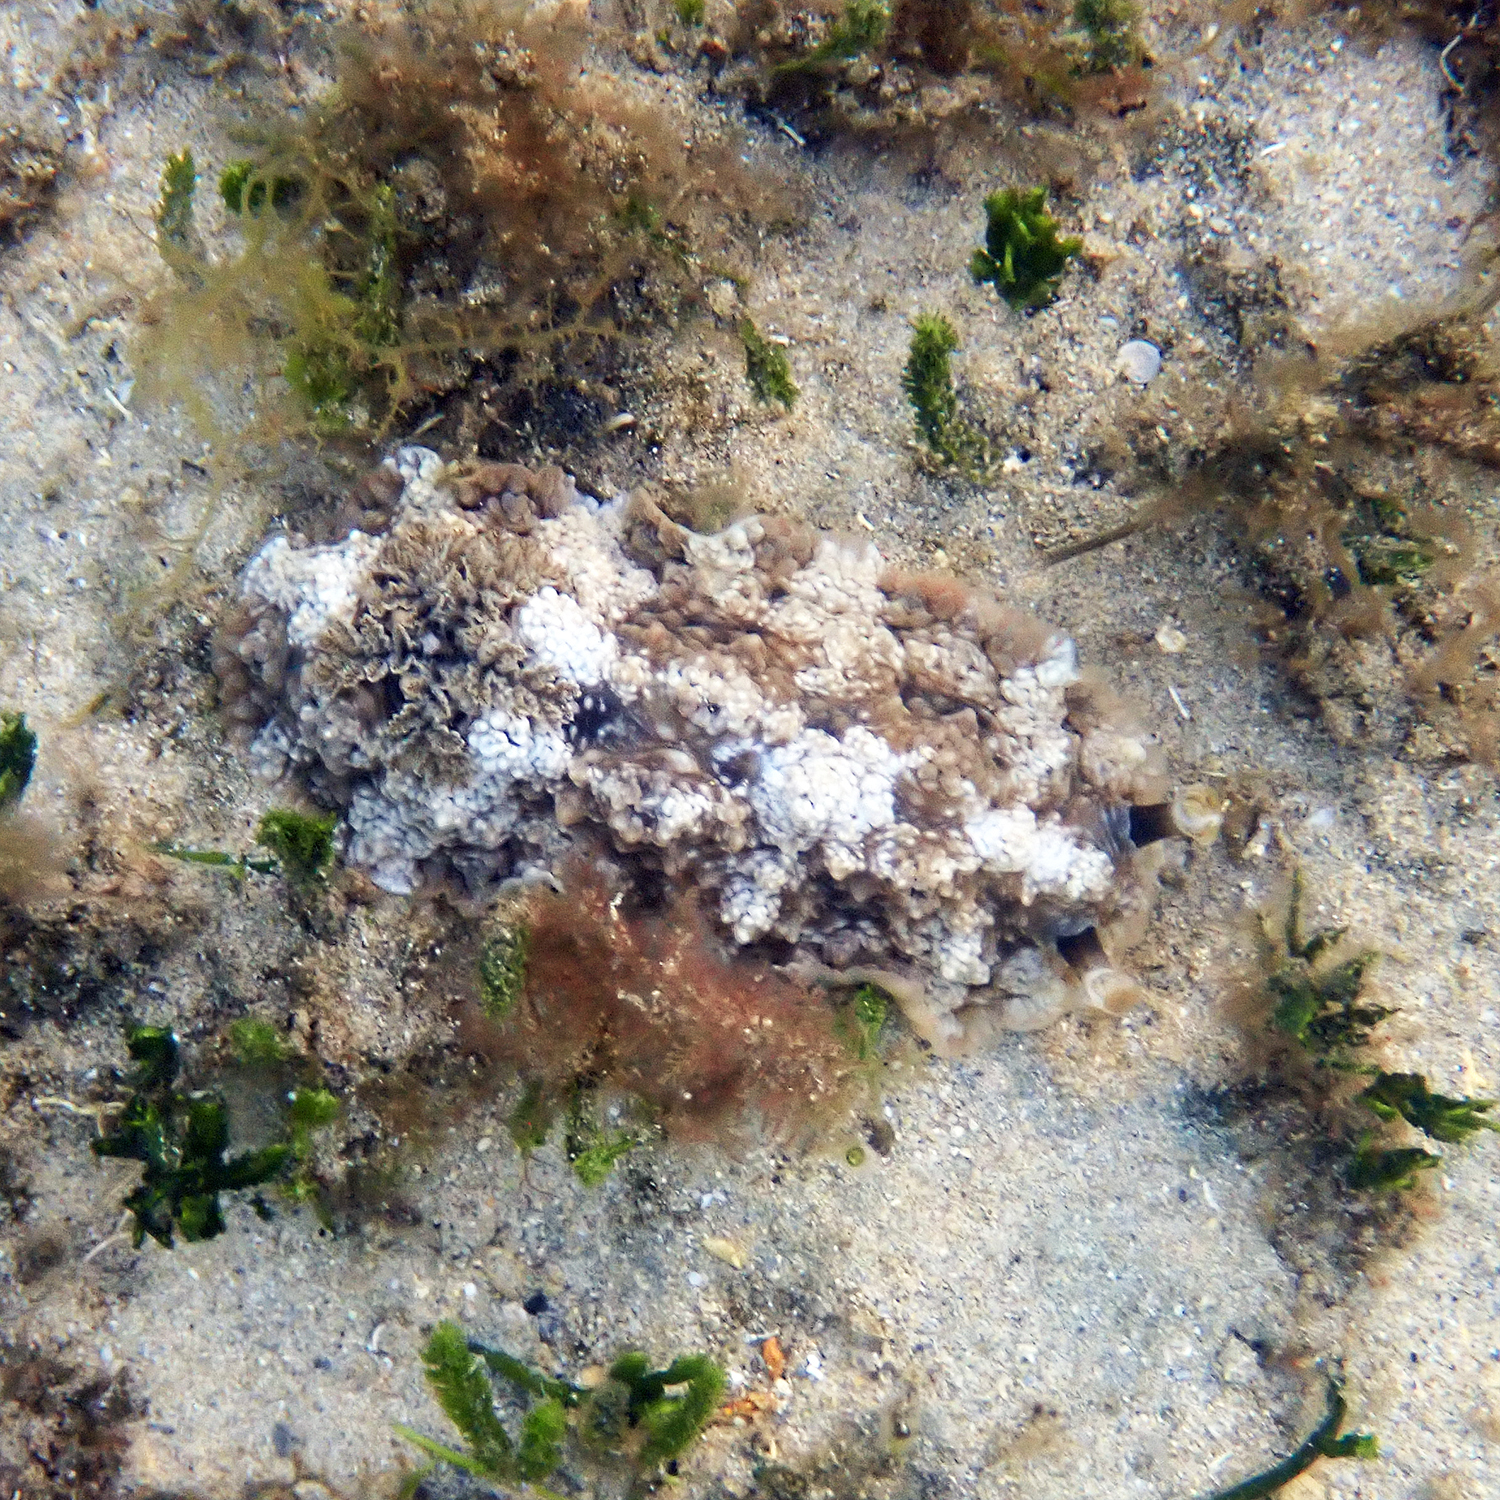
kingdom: Animalia
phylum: Mollusca
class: Gastropoda
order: Nudibranchia
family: Dendrodorididae
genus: Dendrodoris
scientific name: Dendrodoris tuberculosa
